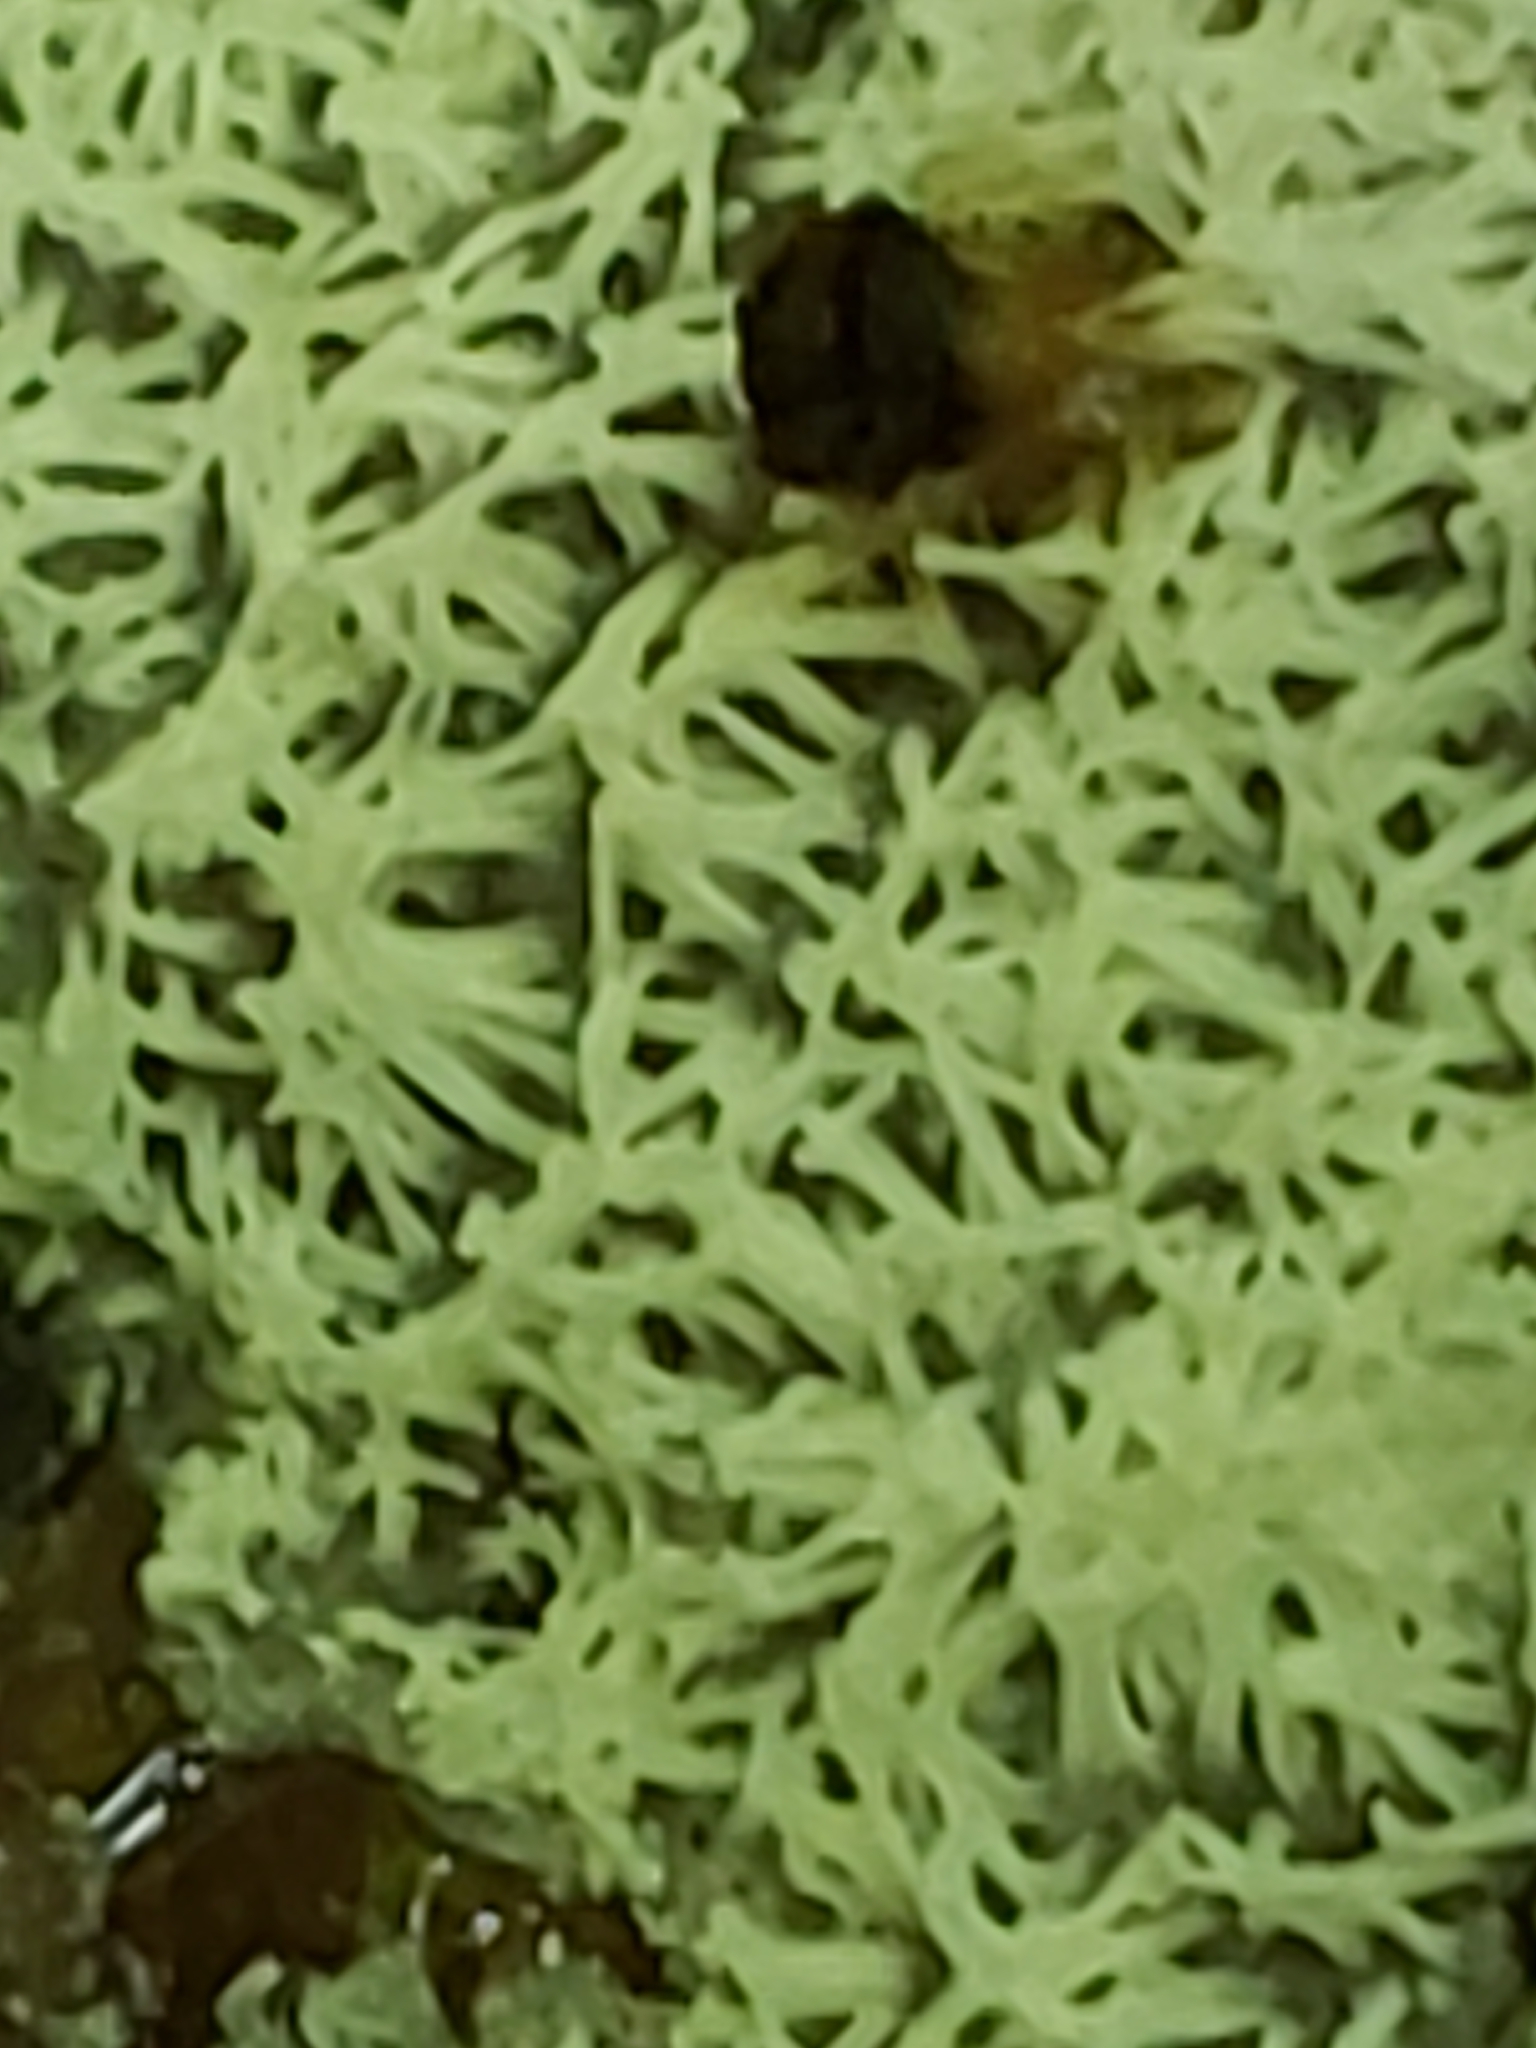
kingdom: Protozoa
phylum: Mycetozoa
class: Protosteliomycetes
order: Ceratiomyxales
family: Ceratiomyxaceae
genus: Ceratiomyxa
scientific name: Ceratiomyxa fruticulosa
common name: Honeycomb coral slime mold
